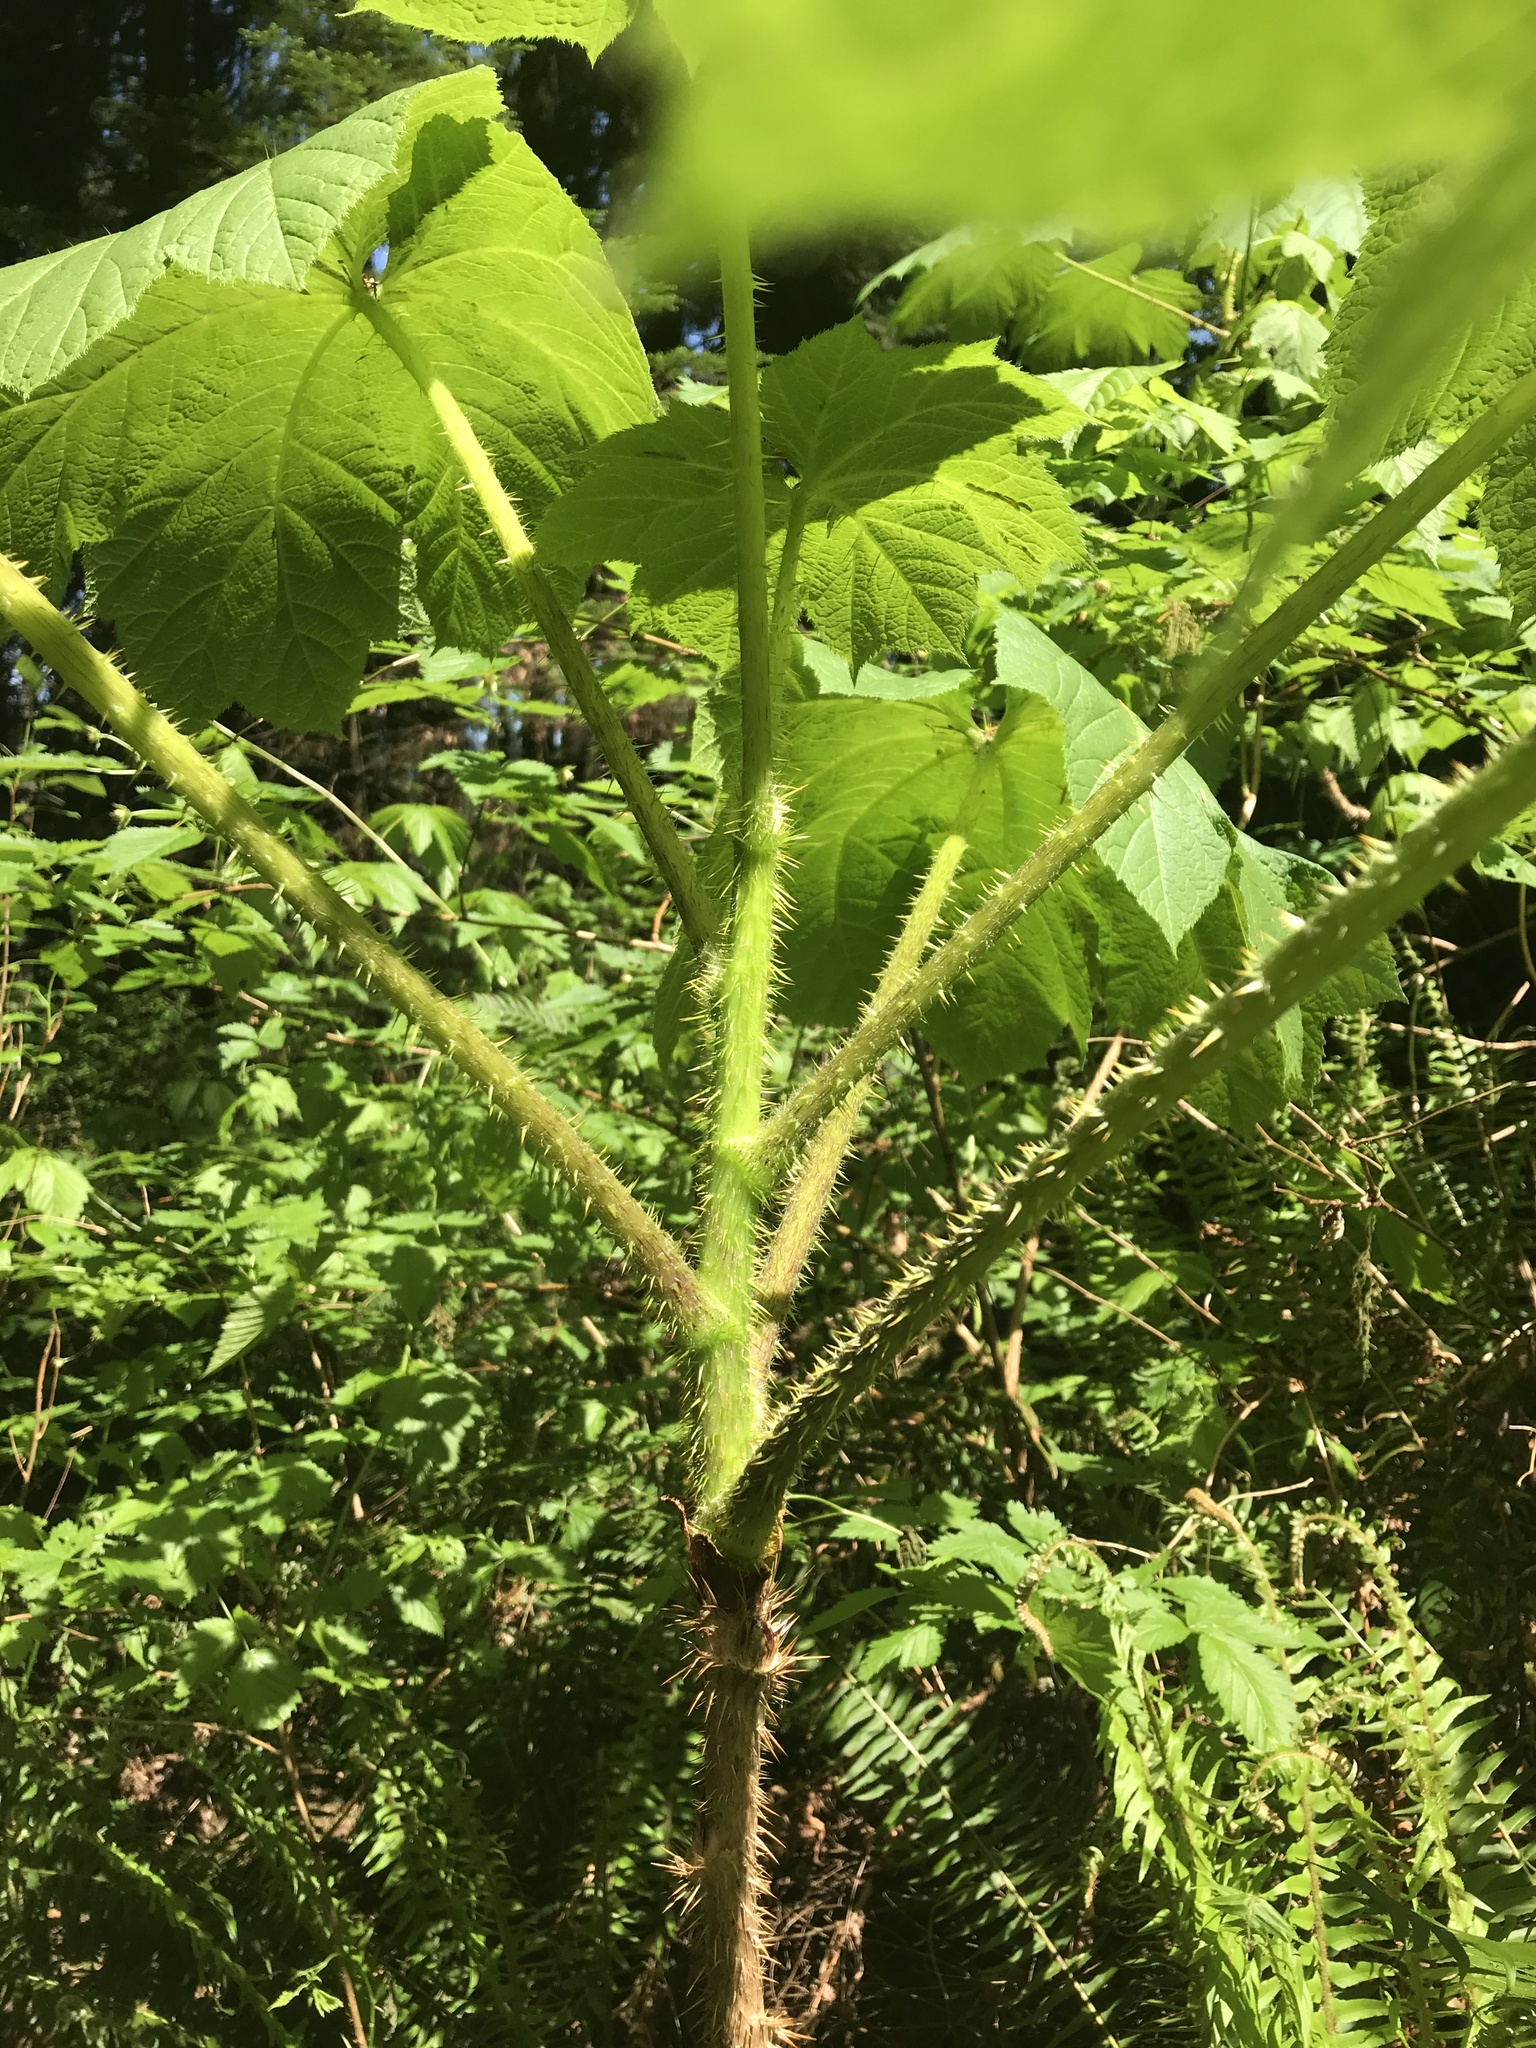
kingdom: Plantae
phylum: Tracheophyta
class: Magnoliopsida
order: Apiales
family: Araliaceae
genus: Oplopanax
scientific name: Oplopanax horridus
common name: Devil's walking-stick
